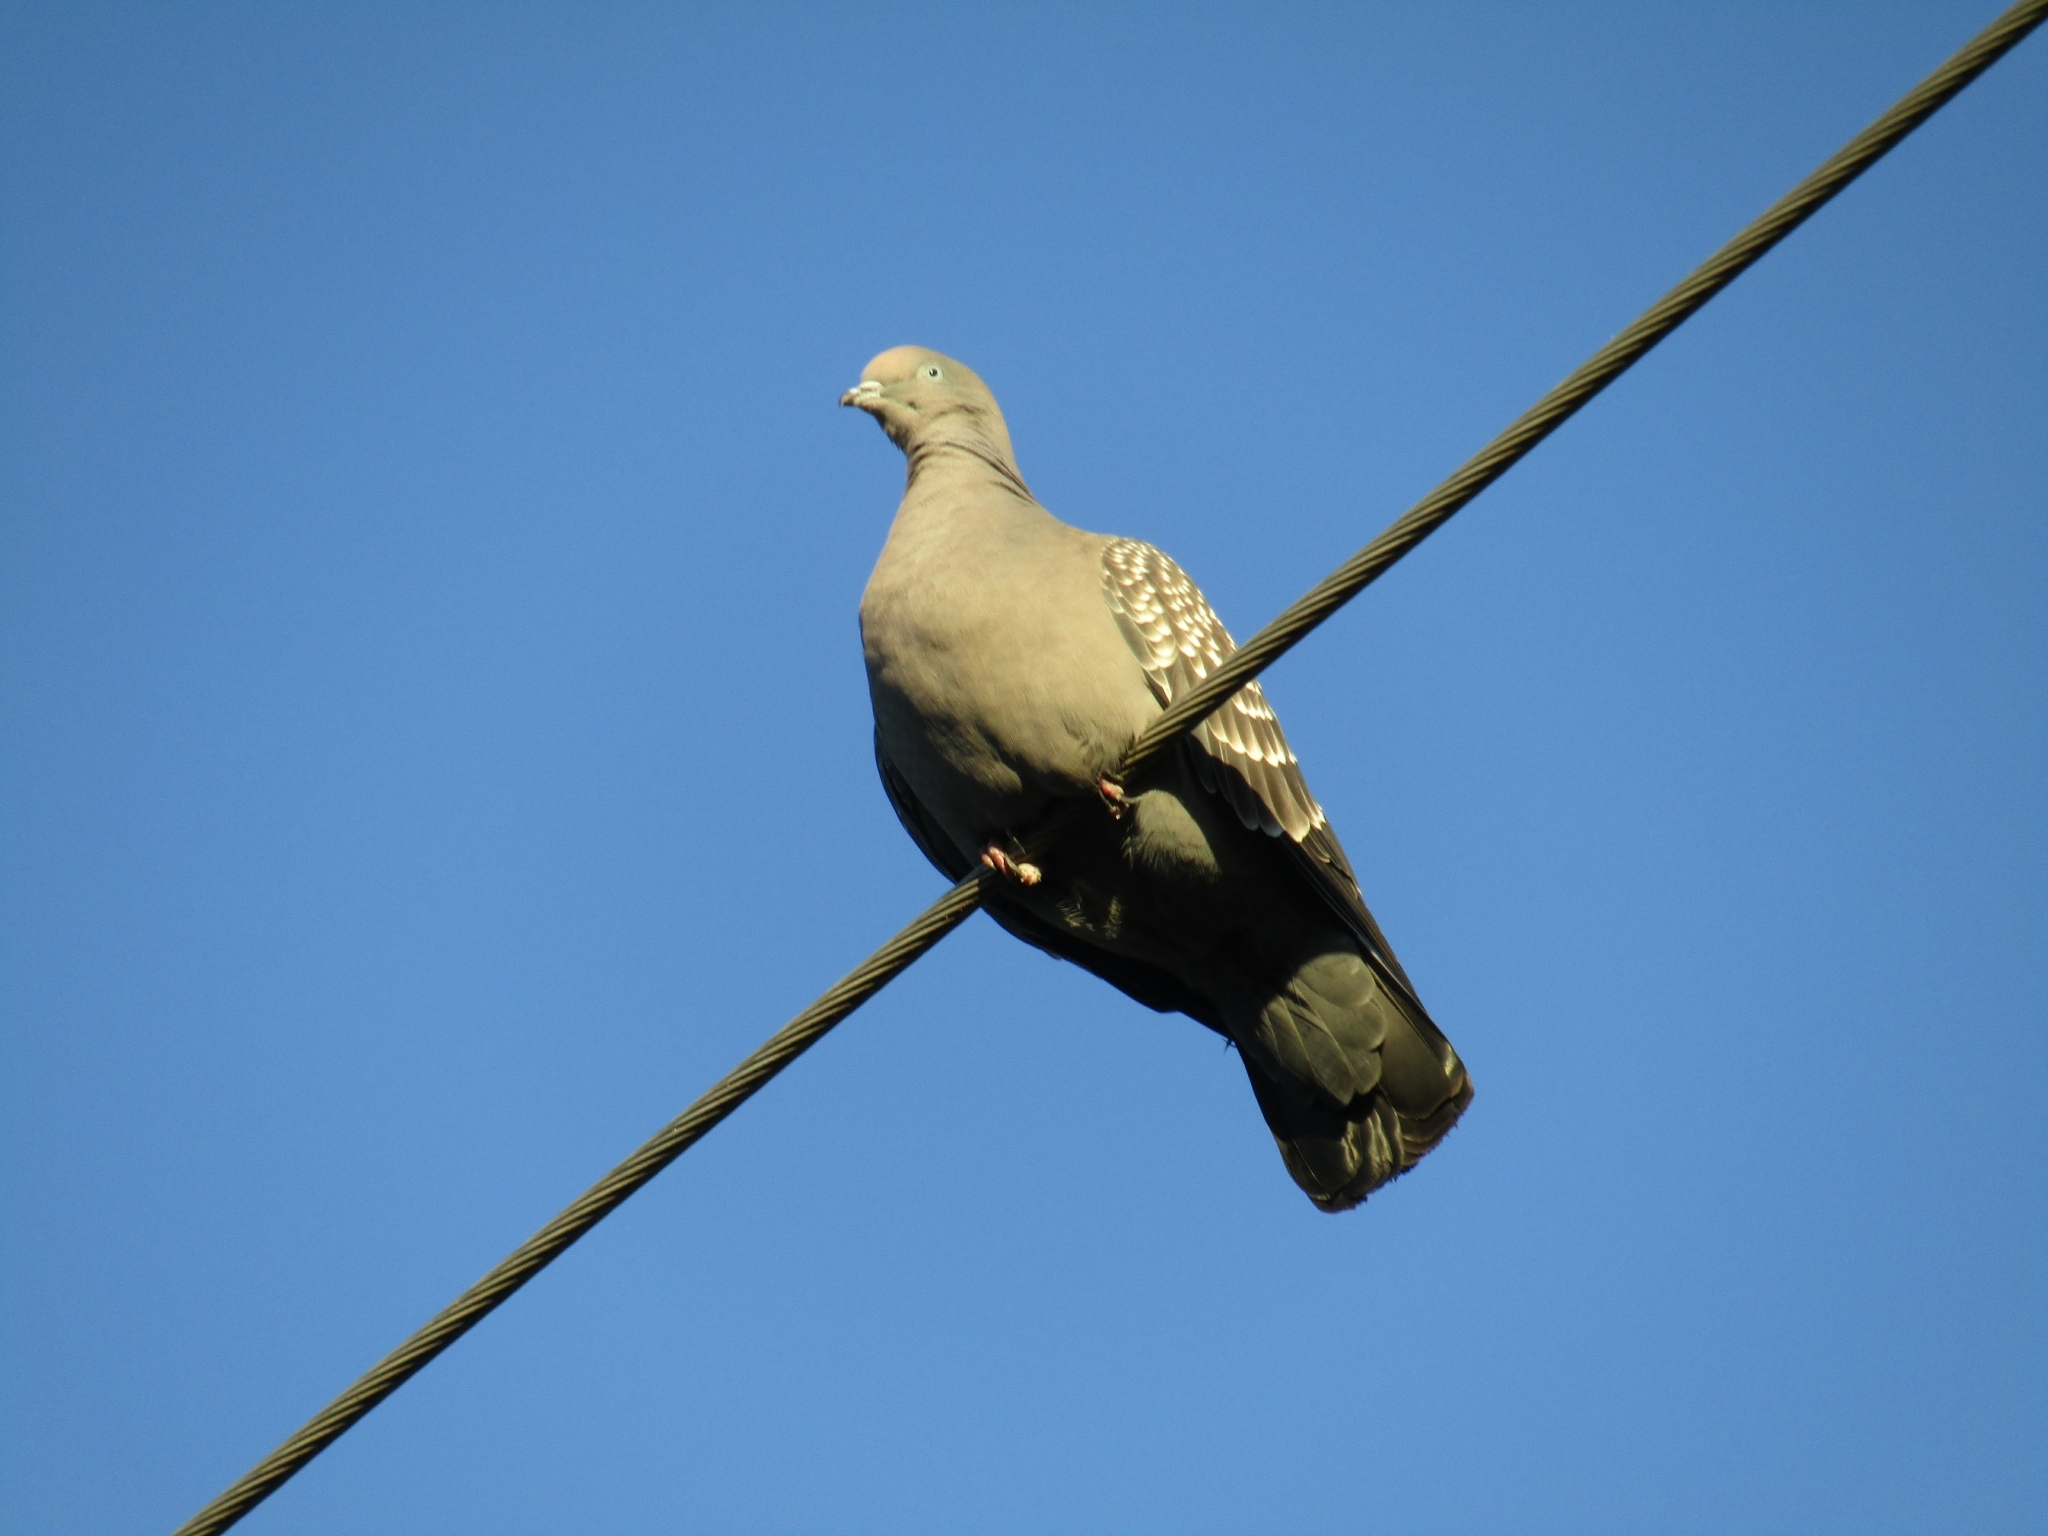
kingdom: Animalia
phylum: Chordata
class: Aves
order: Columbiformes
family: Columbidae
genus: Patagioenas
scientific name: Patagioenas maculosa
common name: Spot-winged pigeon
